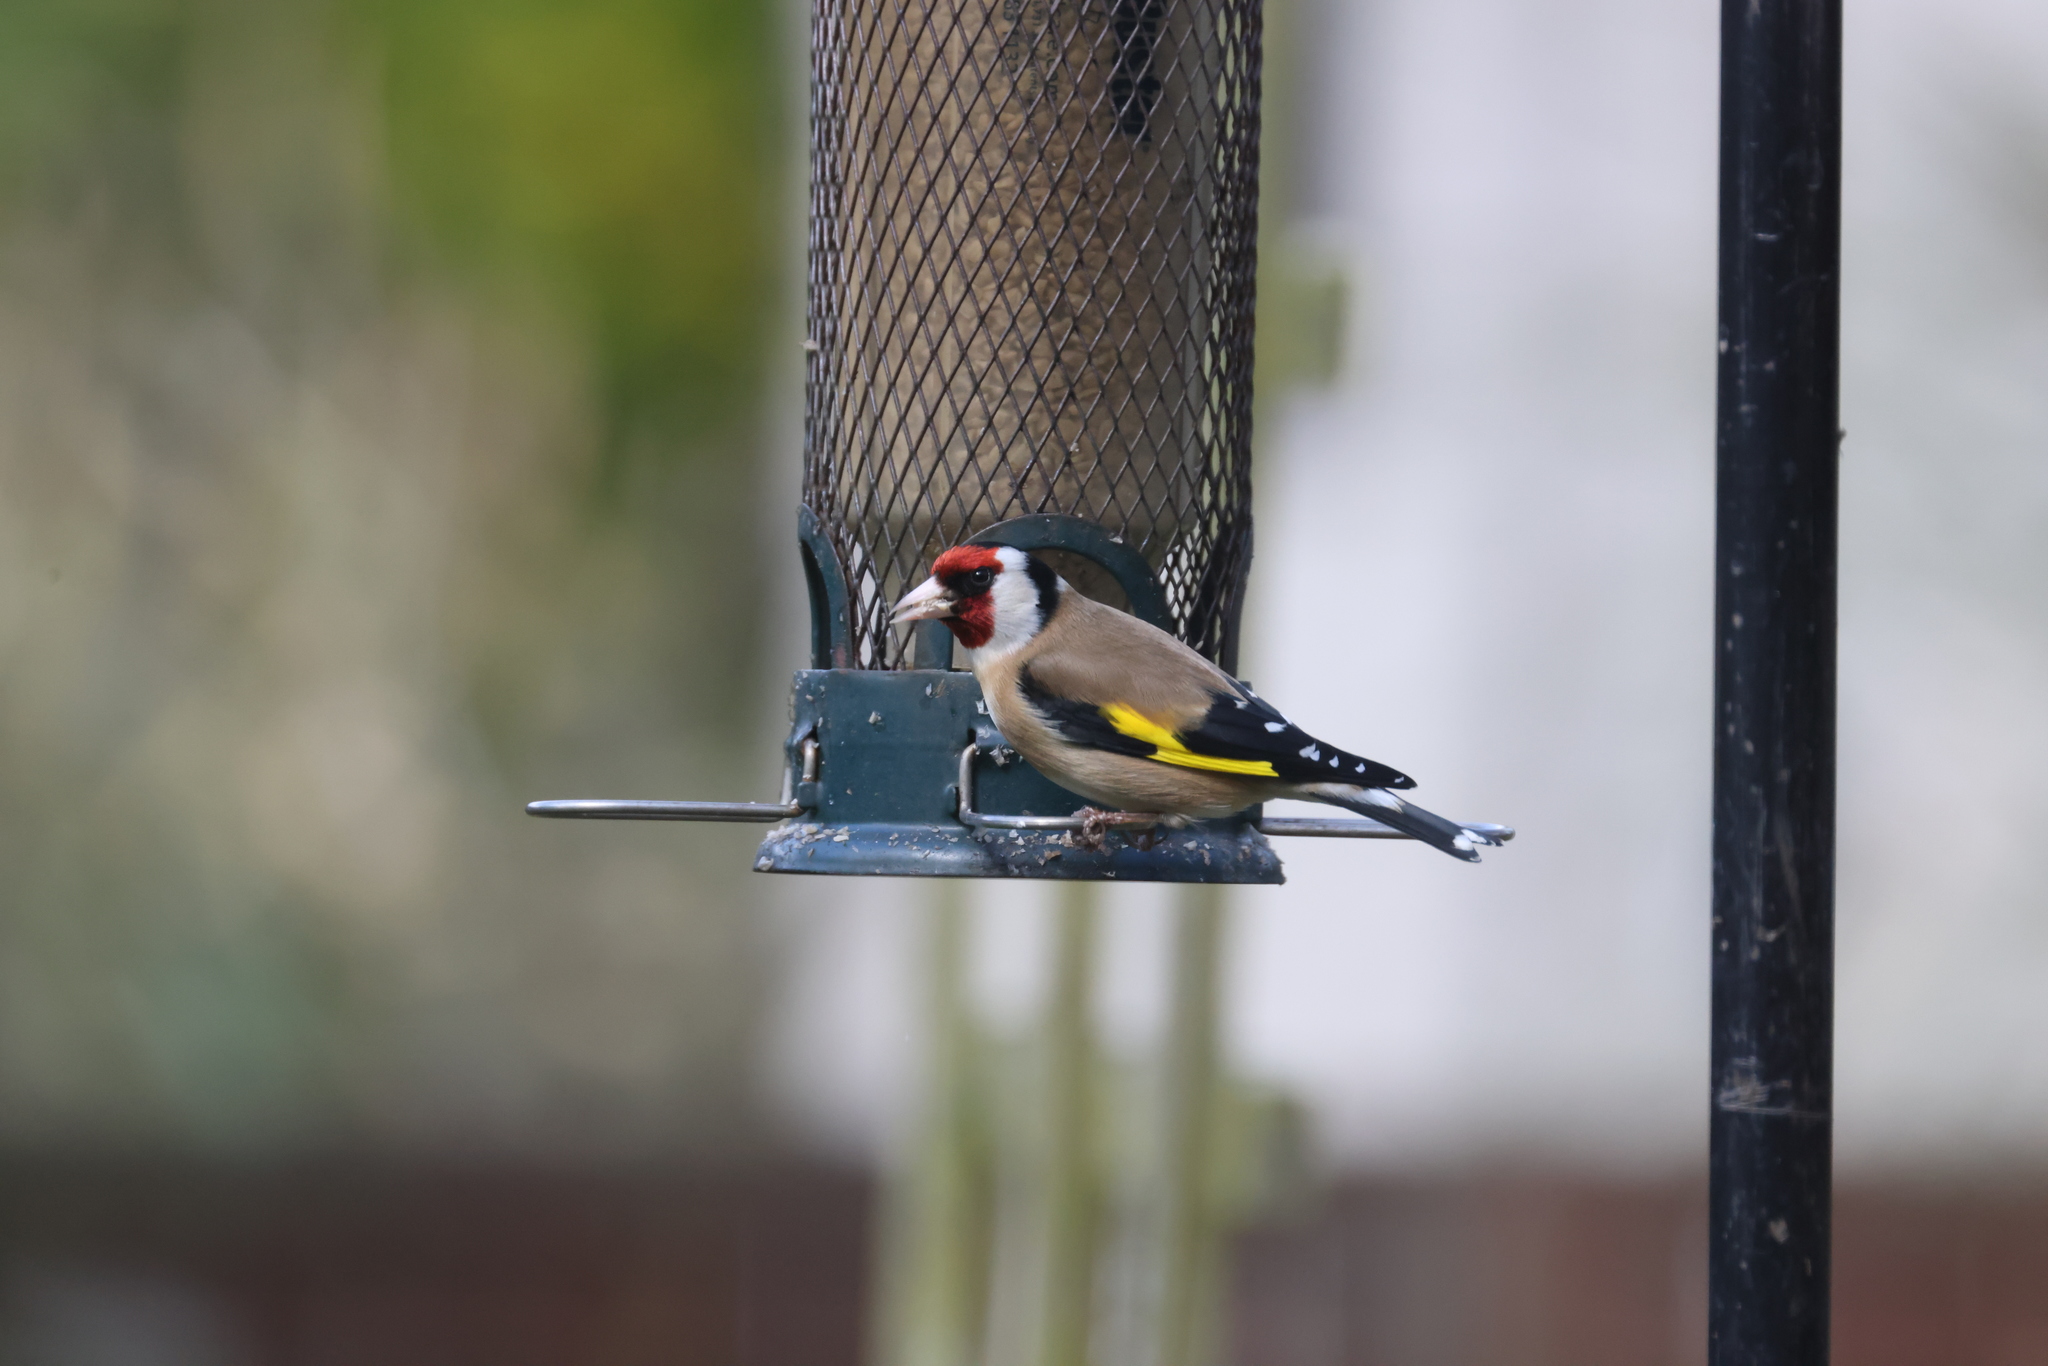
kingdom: Animalia
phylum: Chordata
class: Aves
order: Passeriformes
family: Fringillidae
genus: Carduelis
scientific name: Carduelis carduelis
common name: European goldfinch
